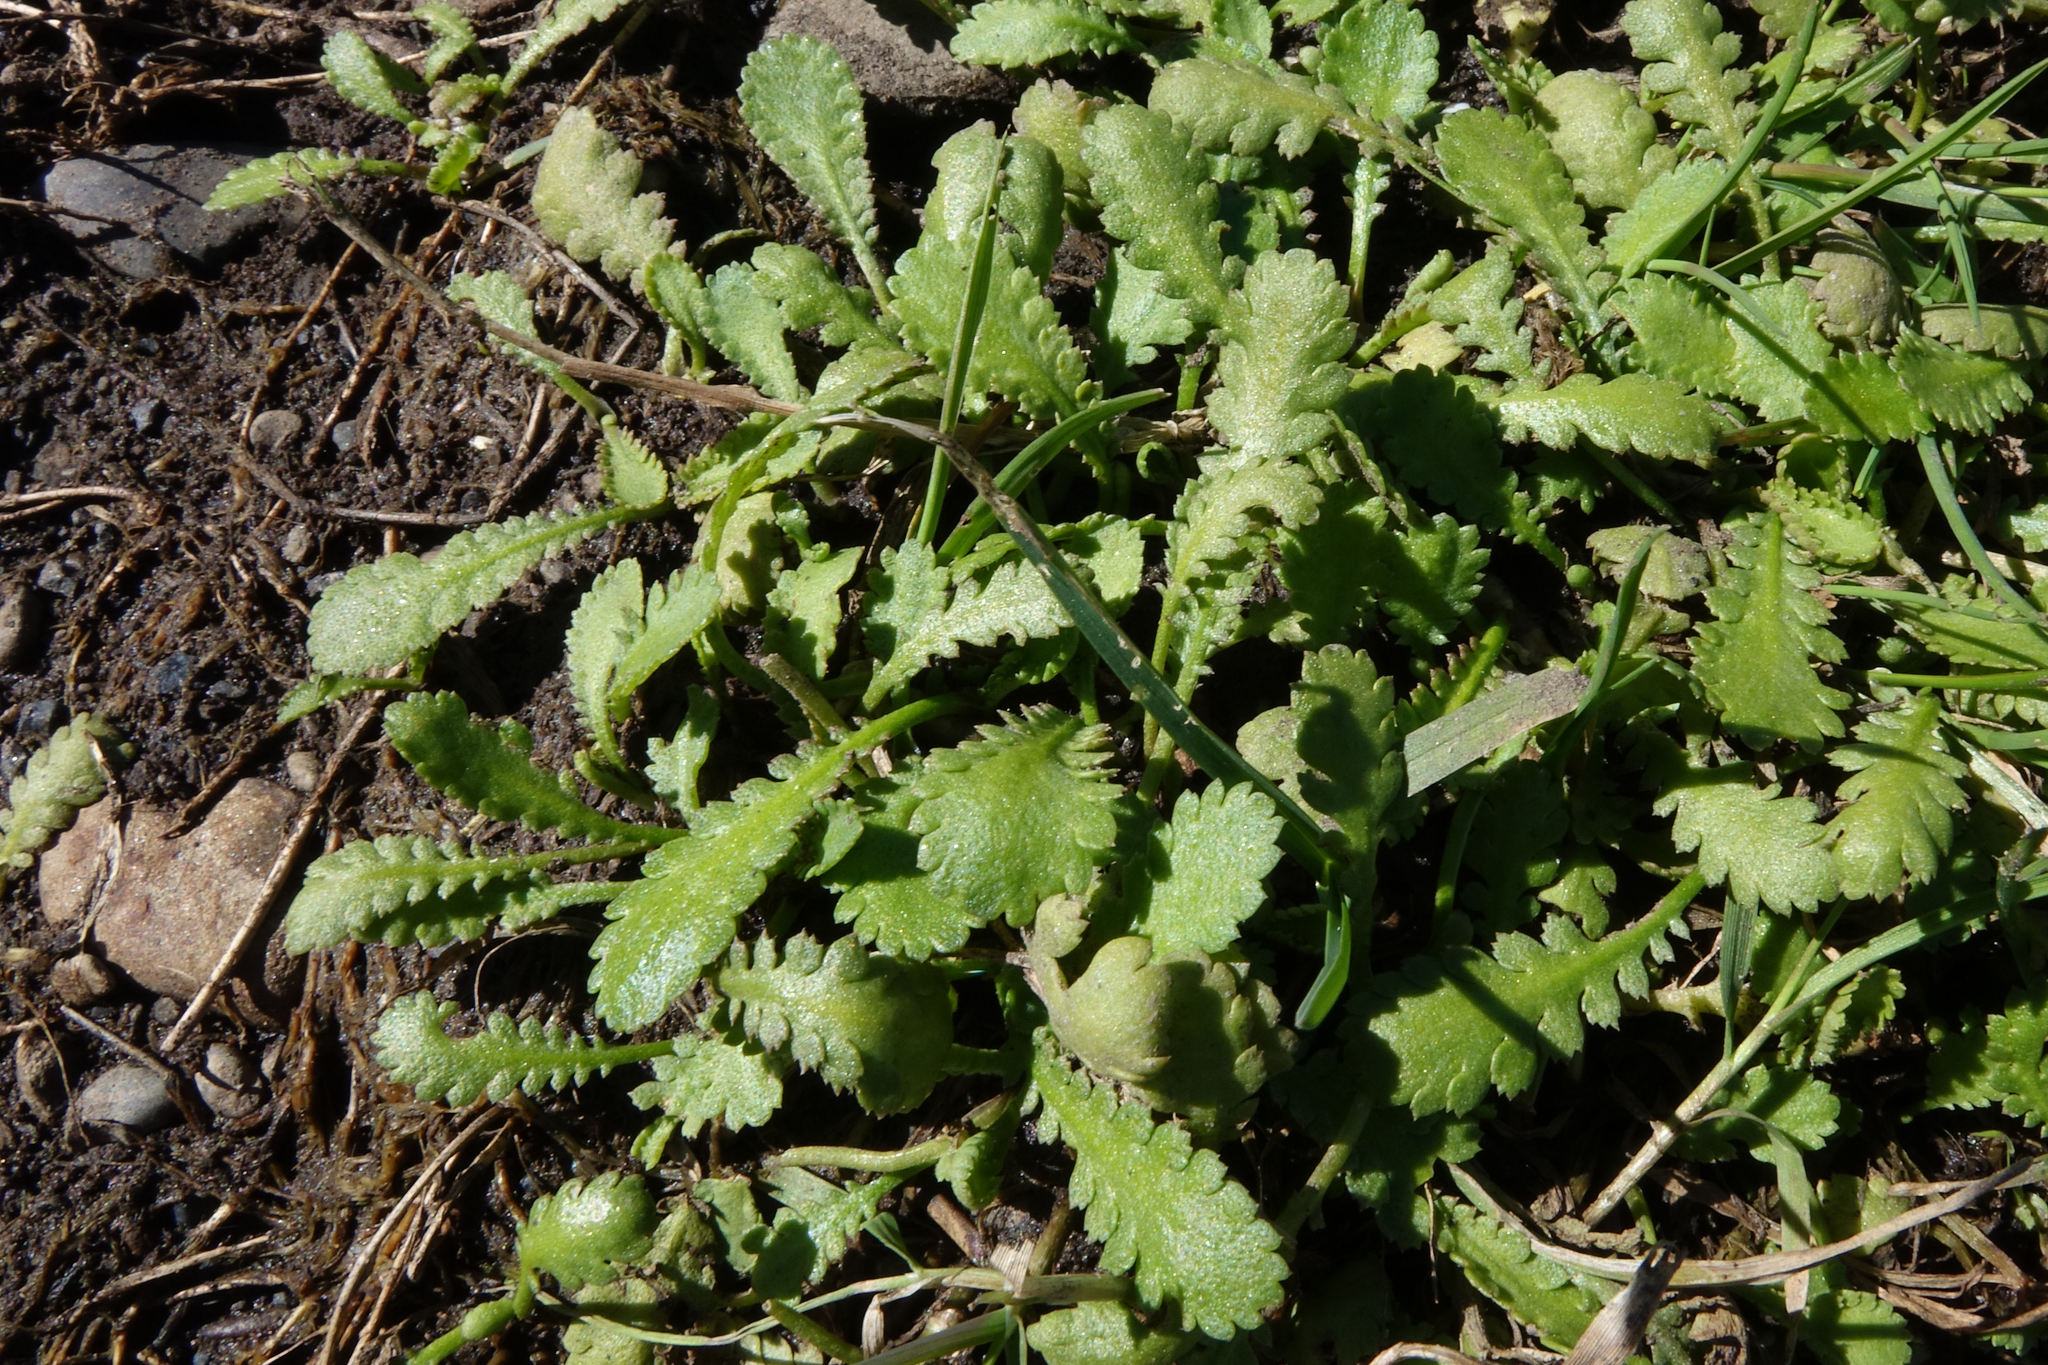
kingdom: Plantae
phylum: Tracheophyta
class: Magnoliopsida
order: Asterales
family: Asteraceae
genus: Leptinella
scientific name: Leptinella dioica
